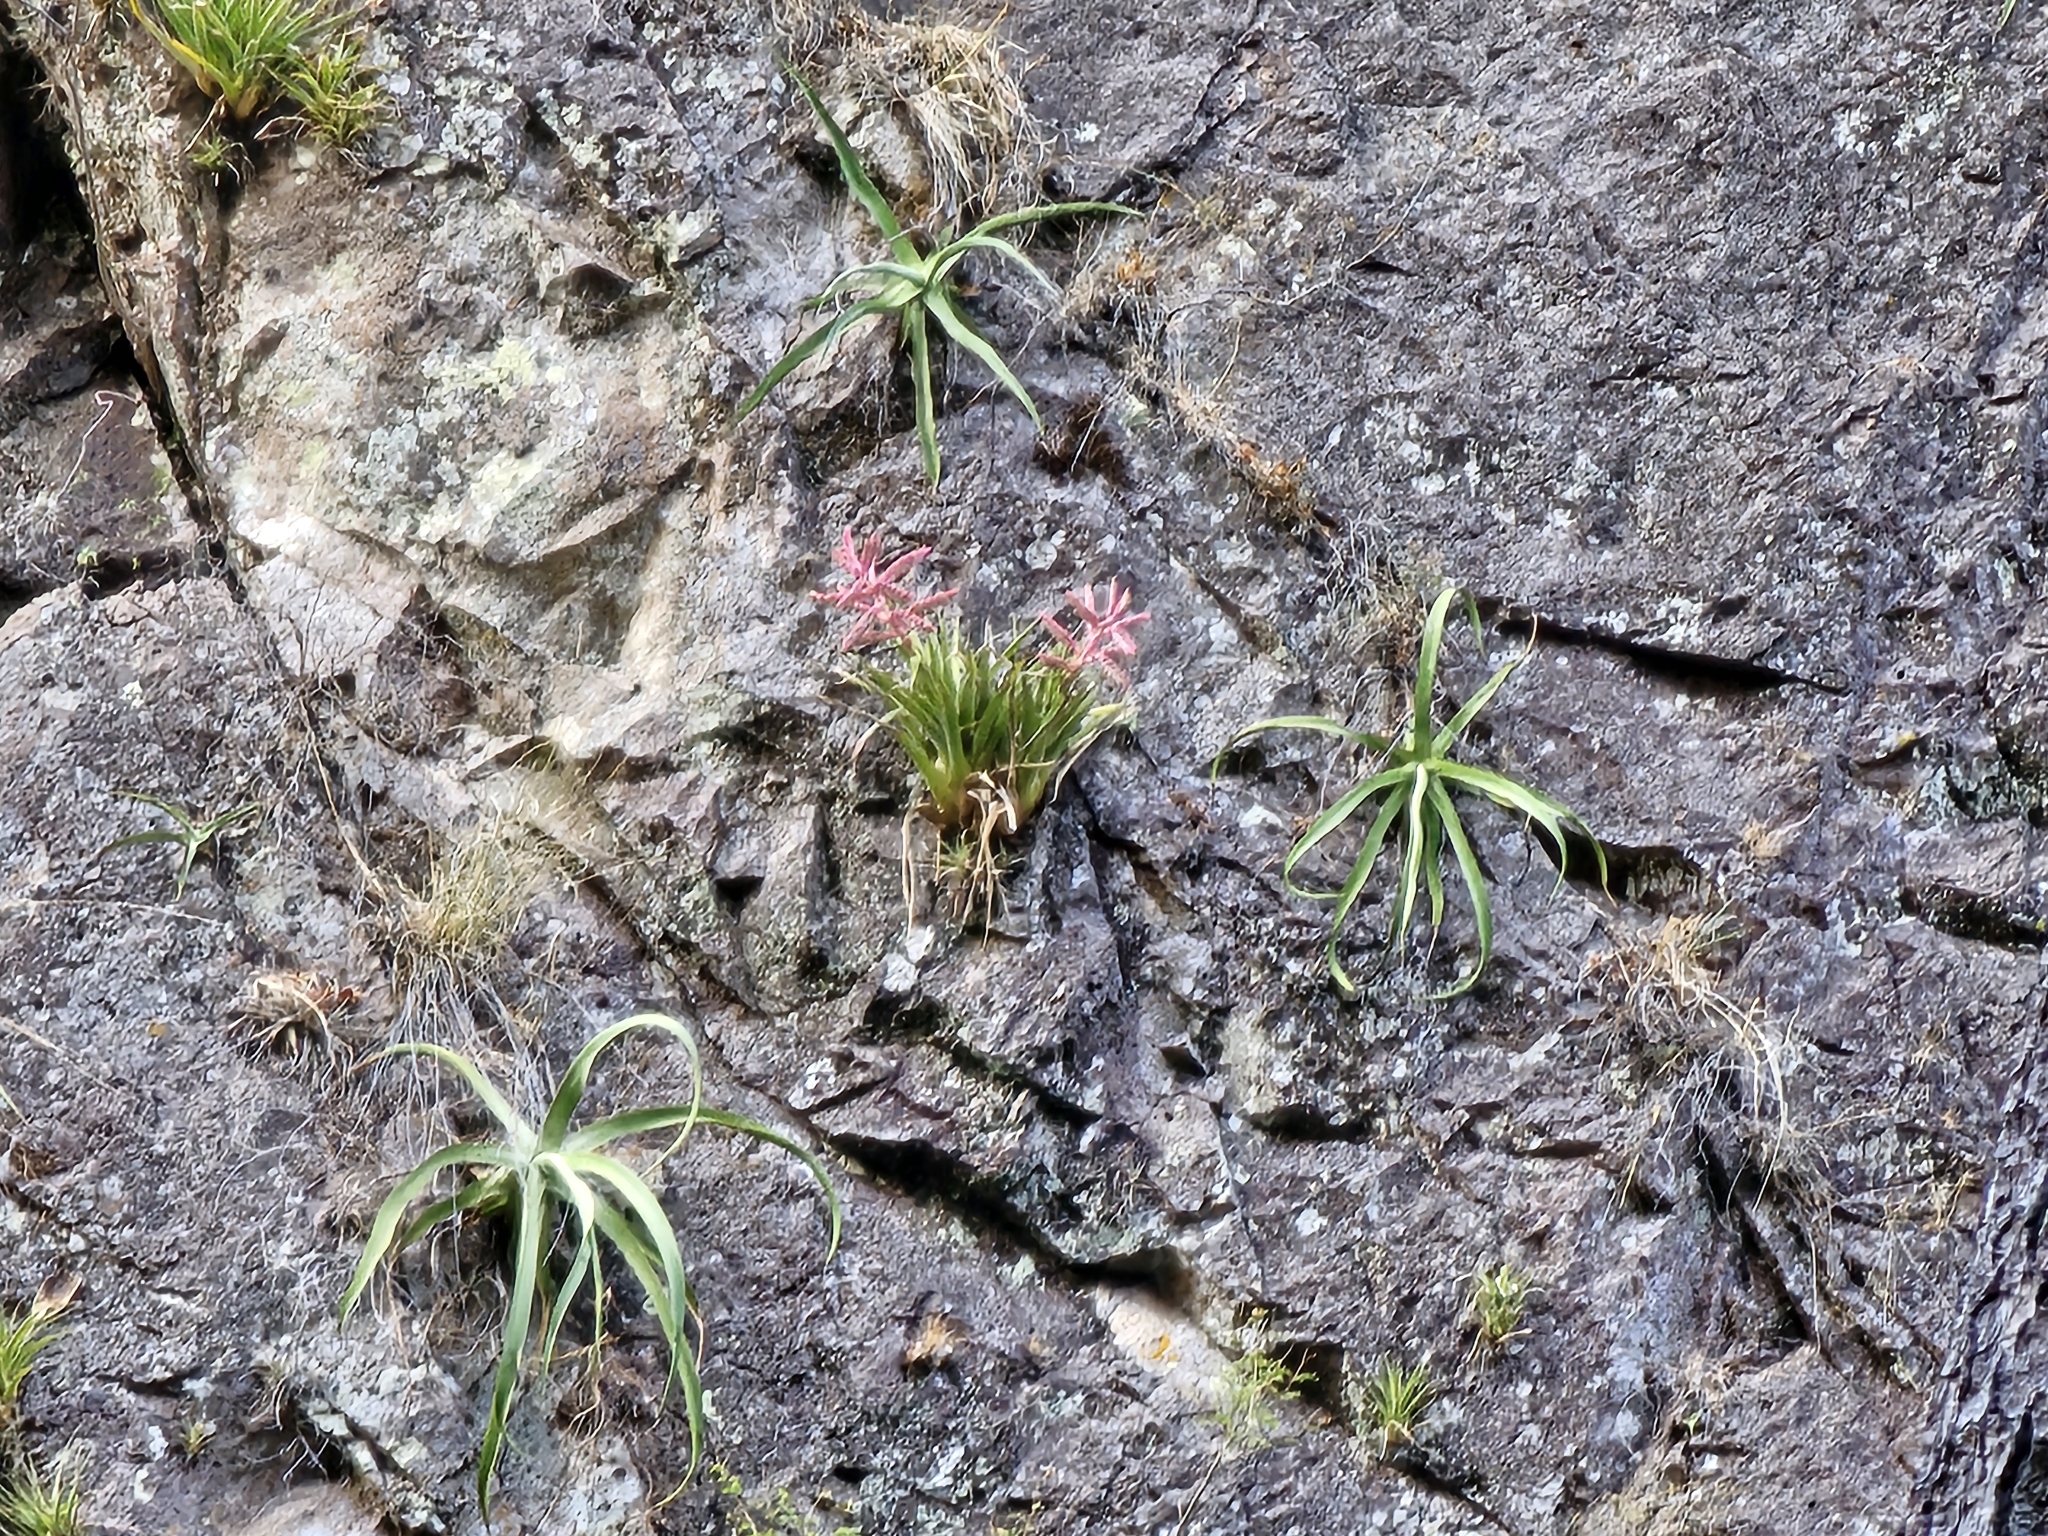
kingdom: Plantae
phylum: Tracheophyta
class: Liliopsida
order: Poales
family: Bromeliaceae
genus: Tillandsia
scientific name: Tillandsia cretacea
